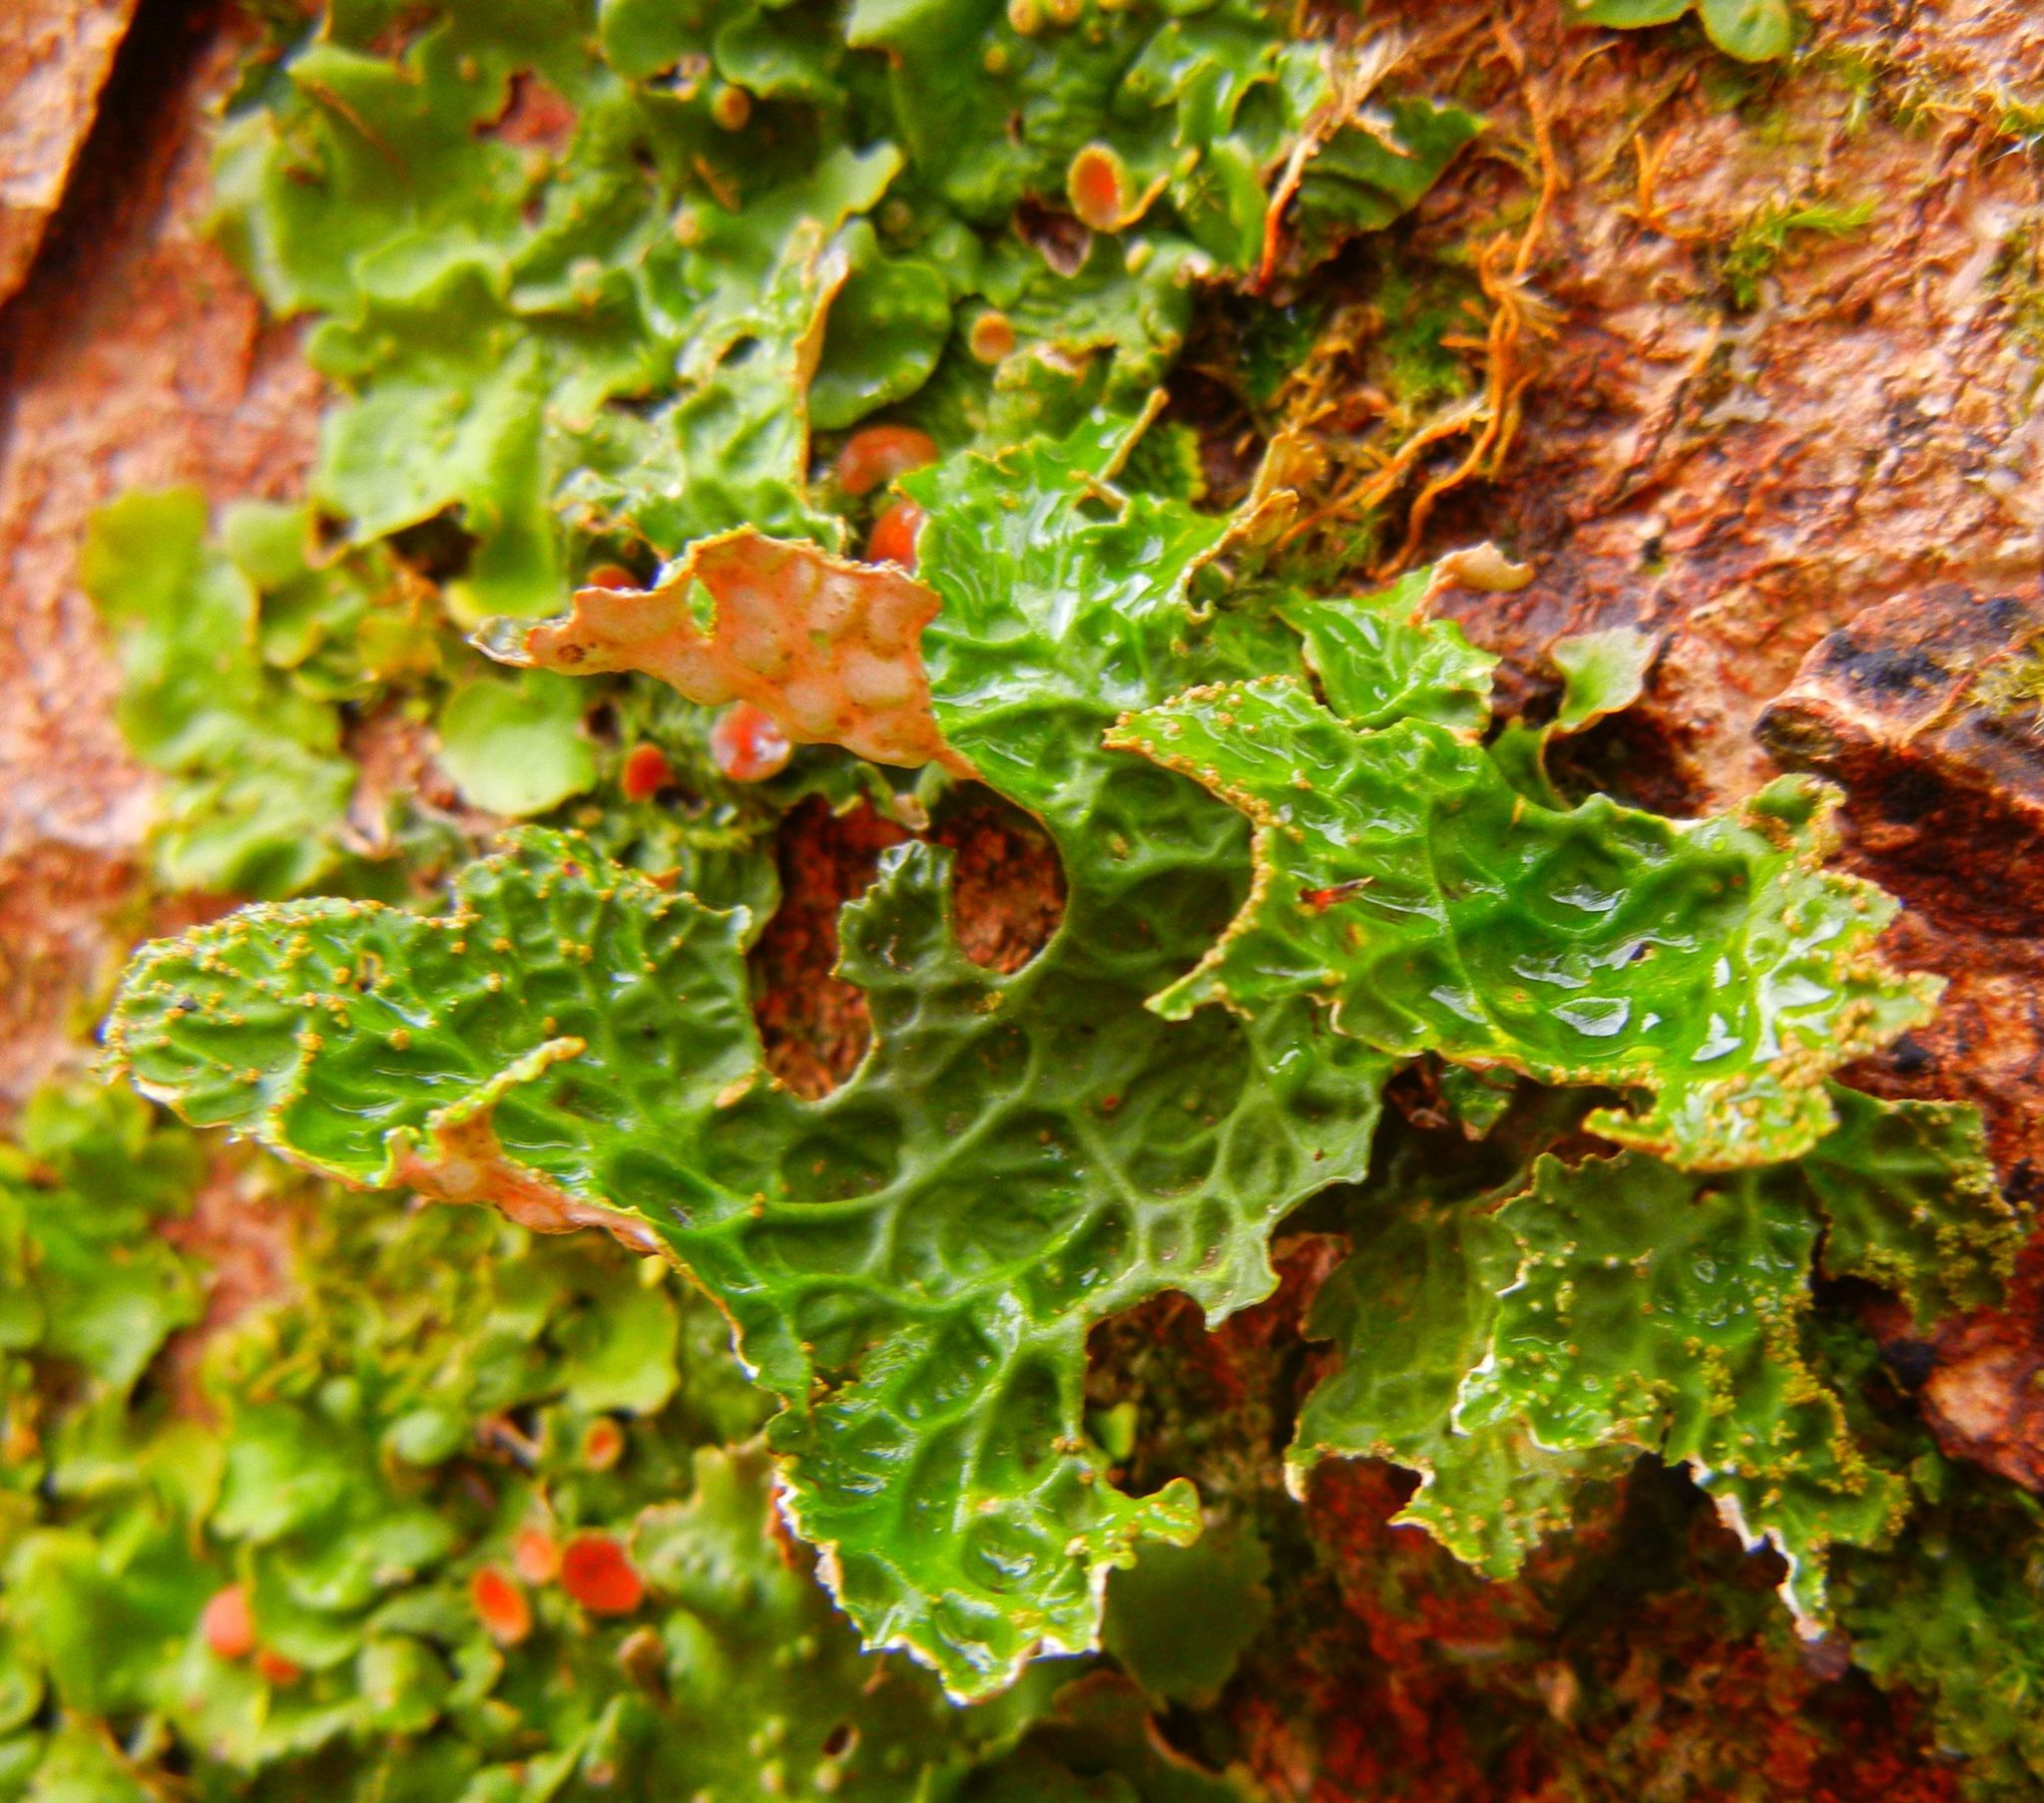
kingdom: Fungi
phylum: Ascomycota
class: Lecanoromycetes
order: Peltigerales
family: Lobariaceae
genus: Lobaria
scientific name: Lobaria pulmonaria
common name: Lungwort
